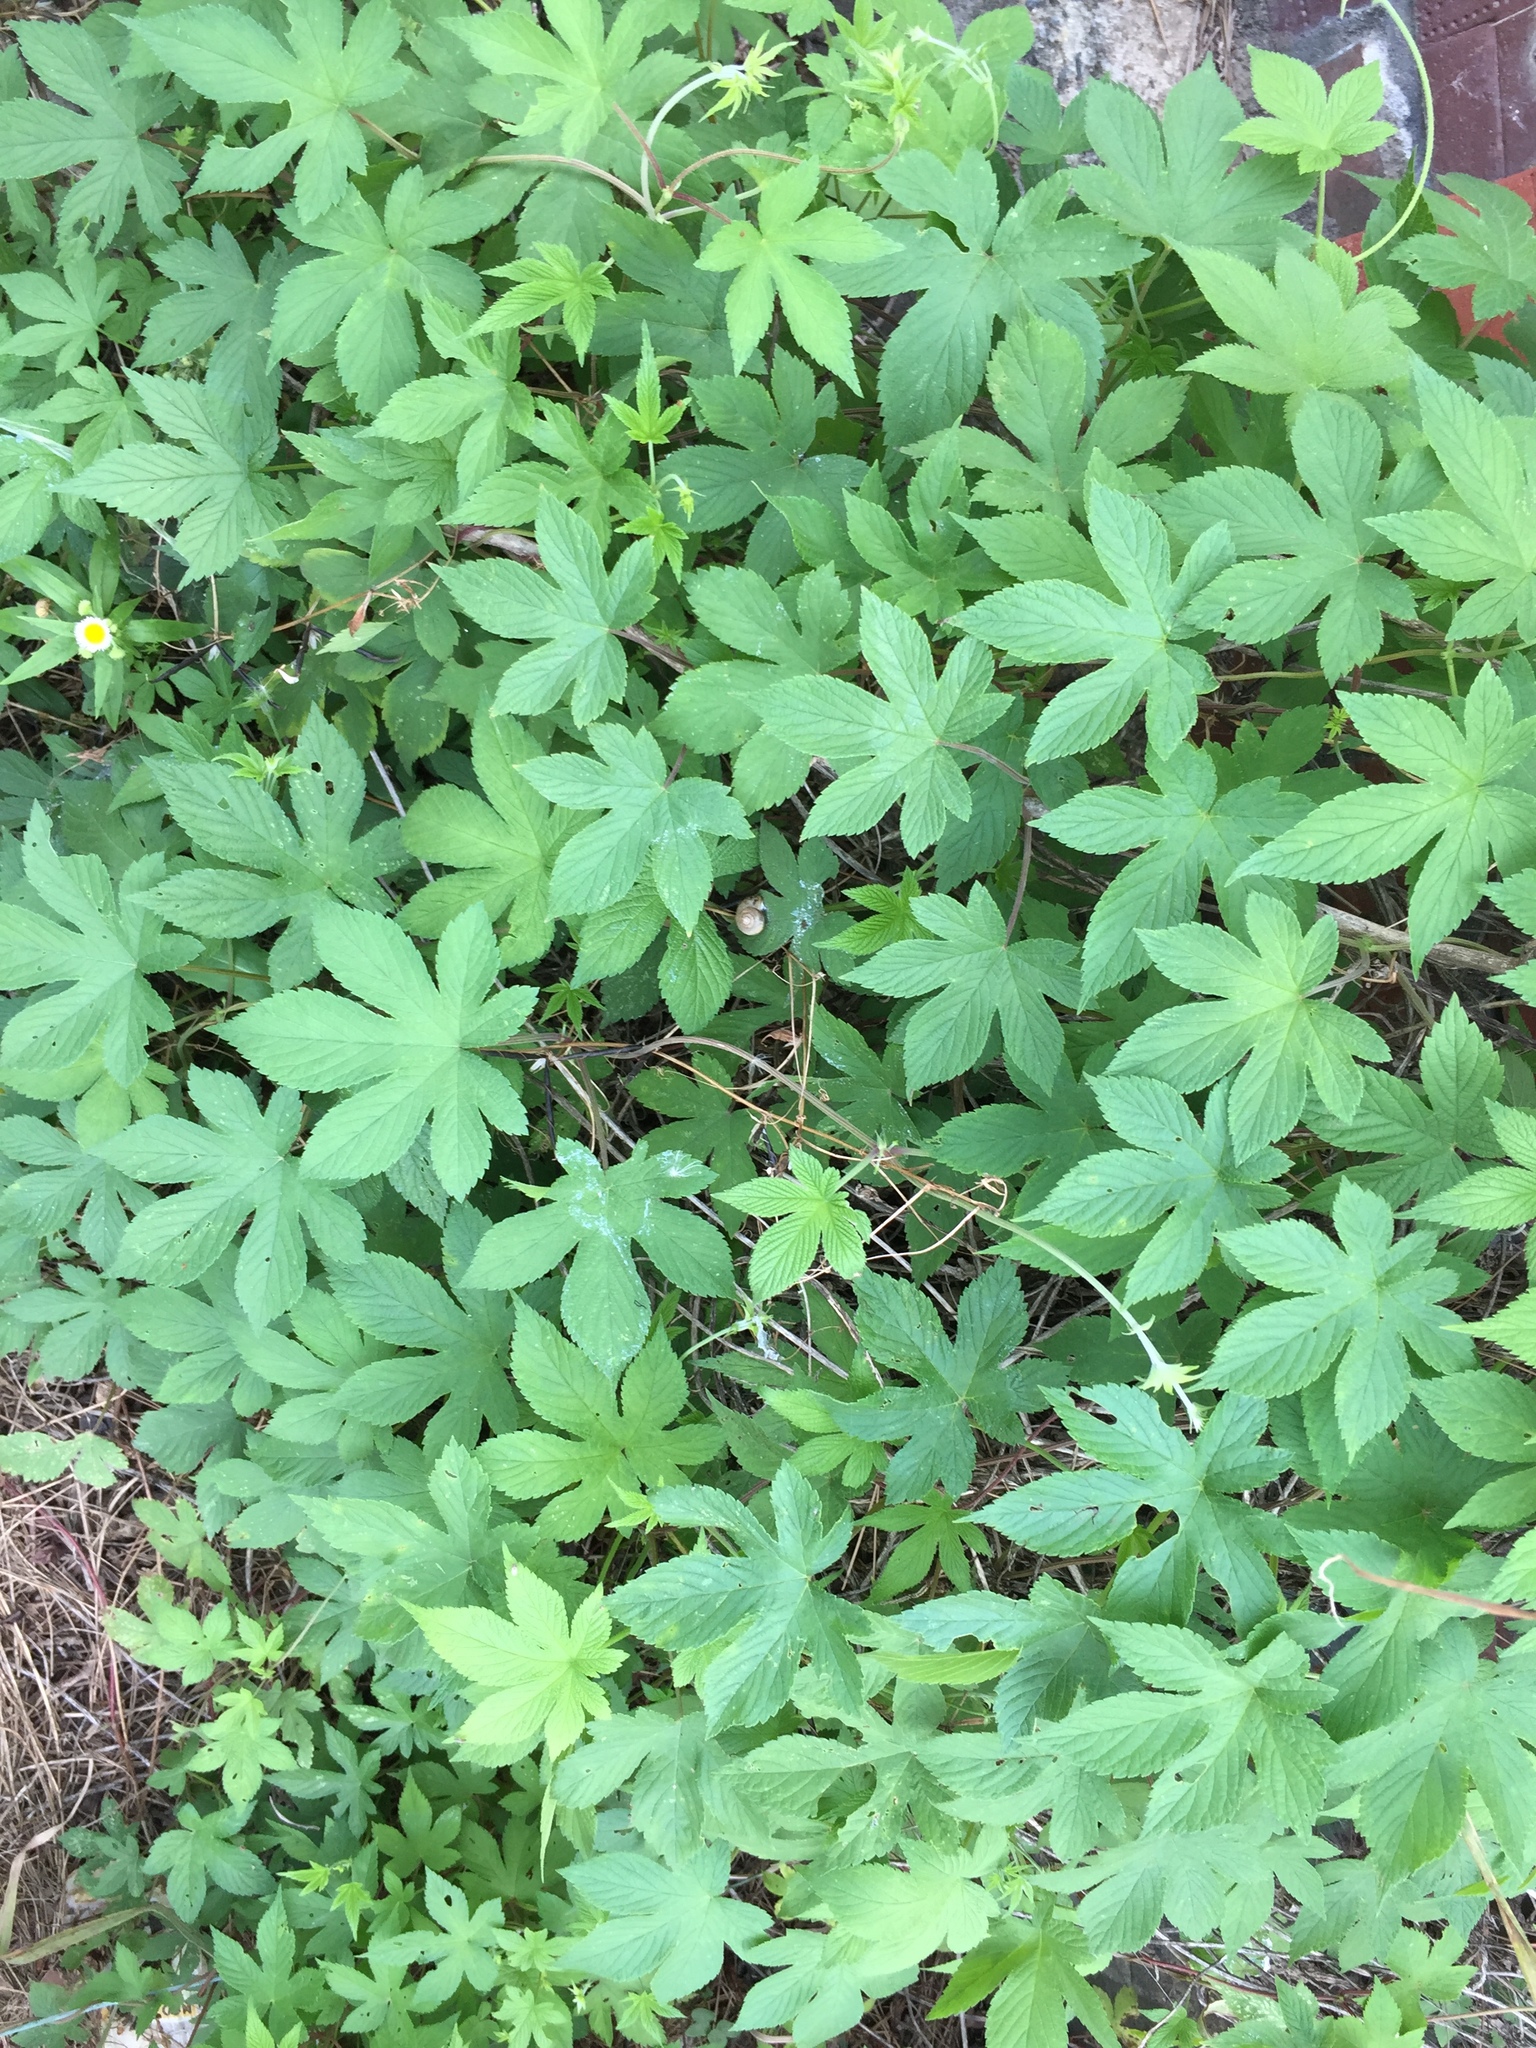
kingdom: Plantae
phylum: Tracheophyta
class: Magnoliopsida
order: Rosales
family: Cannabaceae
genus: Humulus
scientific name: Humulus scandens
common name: Japanese hop
